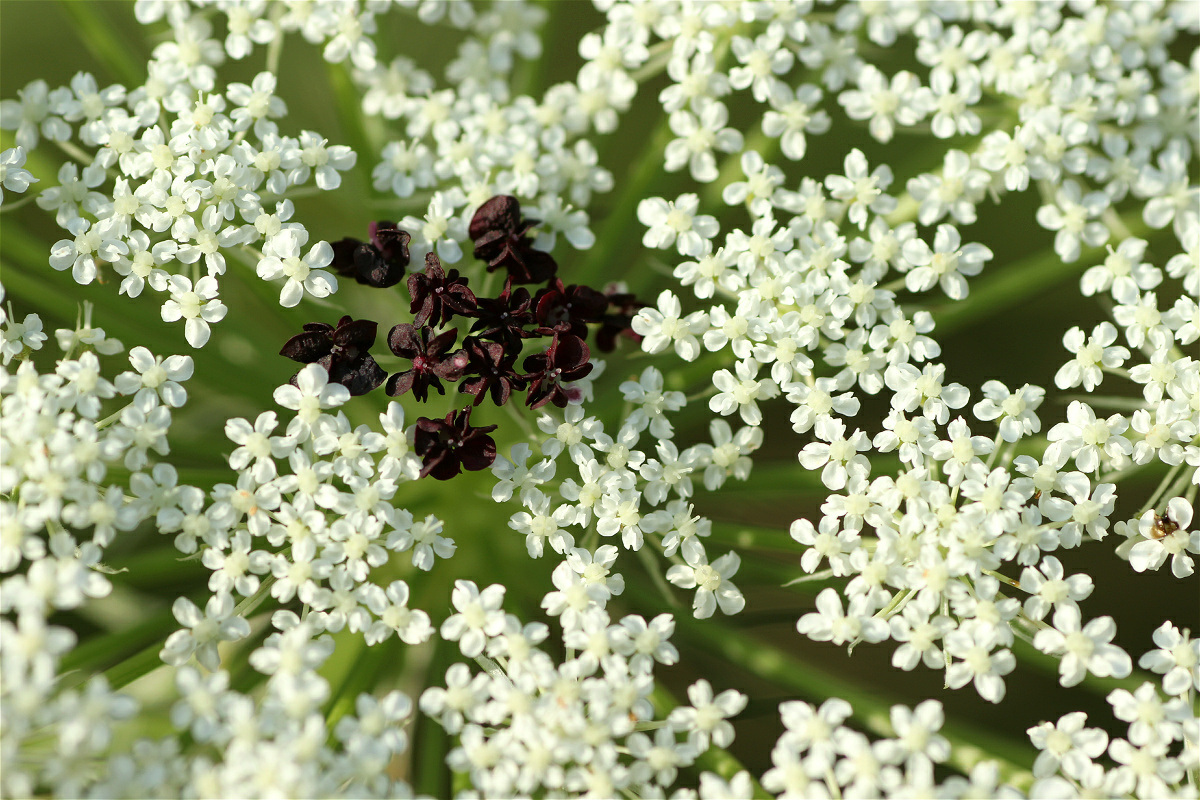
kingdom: Plantae
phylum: Tracheophyta
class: Magnoliopsida
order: Apiales
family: Apiaceae
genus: Daucus
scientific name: Daucus carota
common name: Wild carrot
